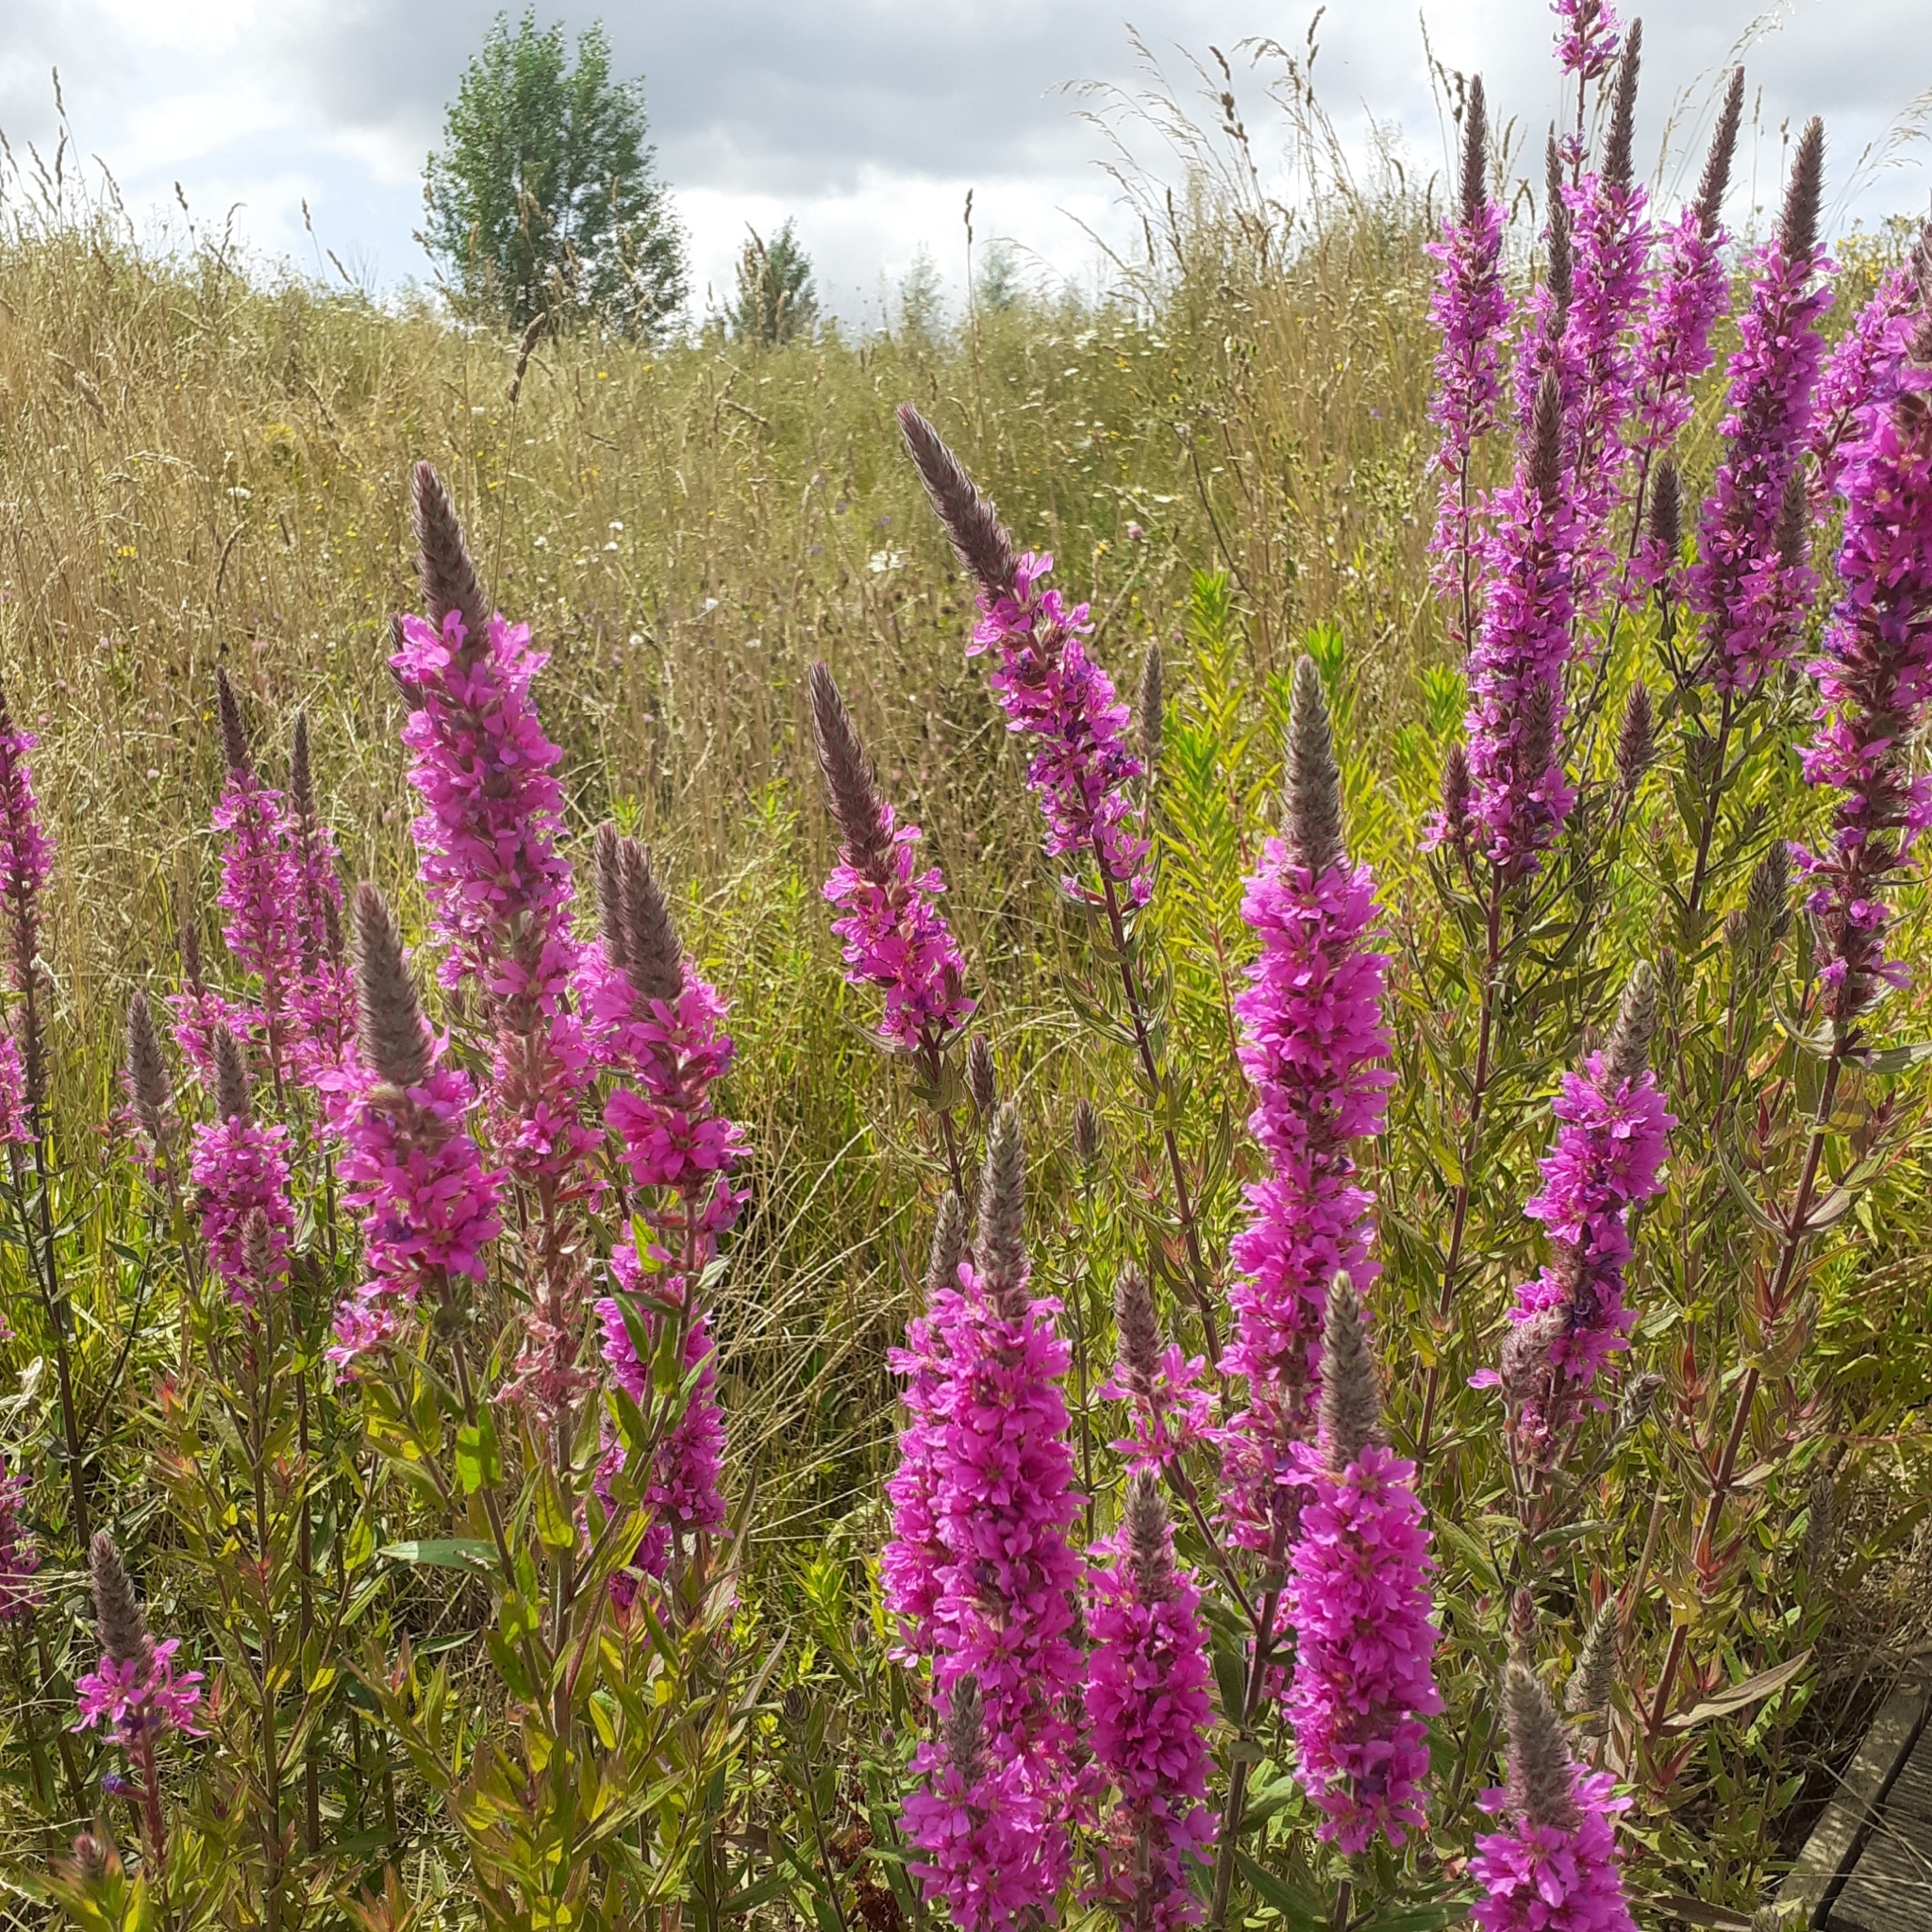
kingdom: Plantae
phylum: Tracheophyta
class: Magnoliopsida
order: Myrtales
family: Lythraceae
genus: Lythrum
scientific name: Lythrum salicaria
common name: Purple loosestrife
